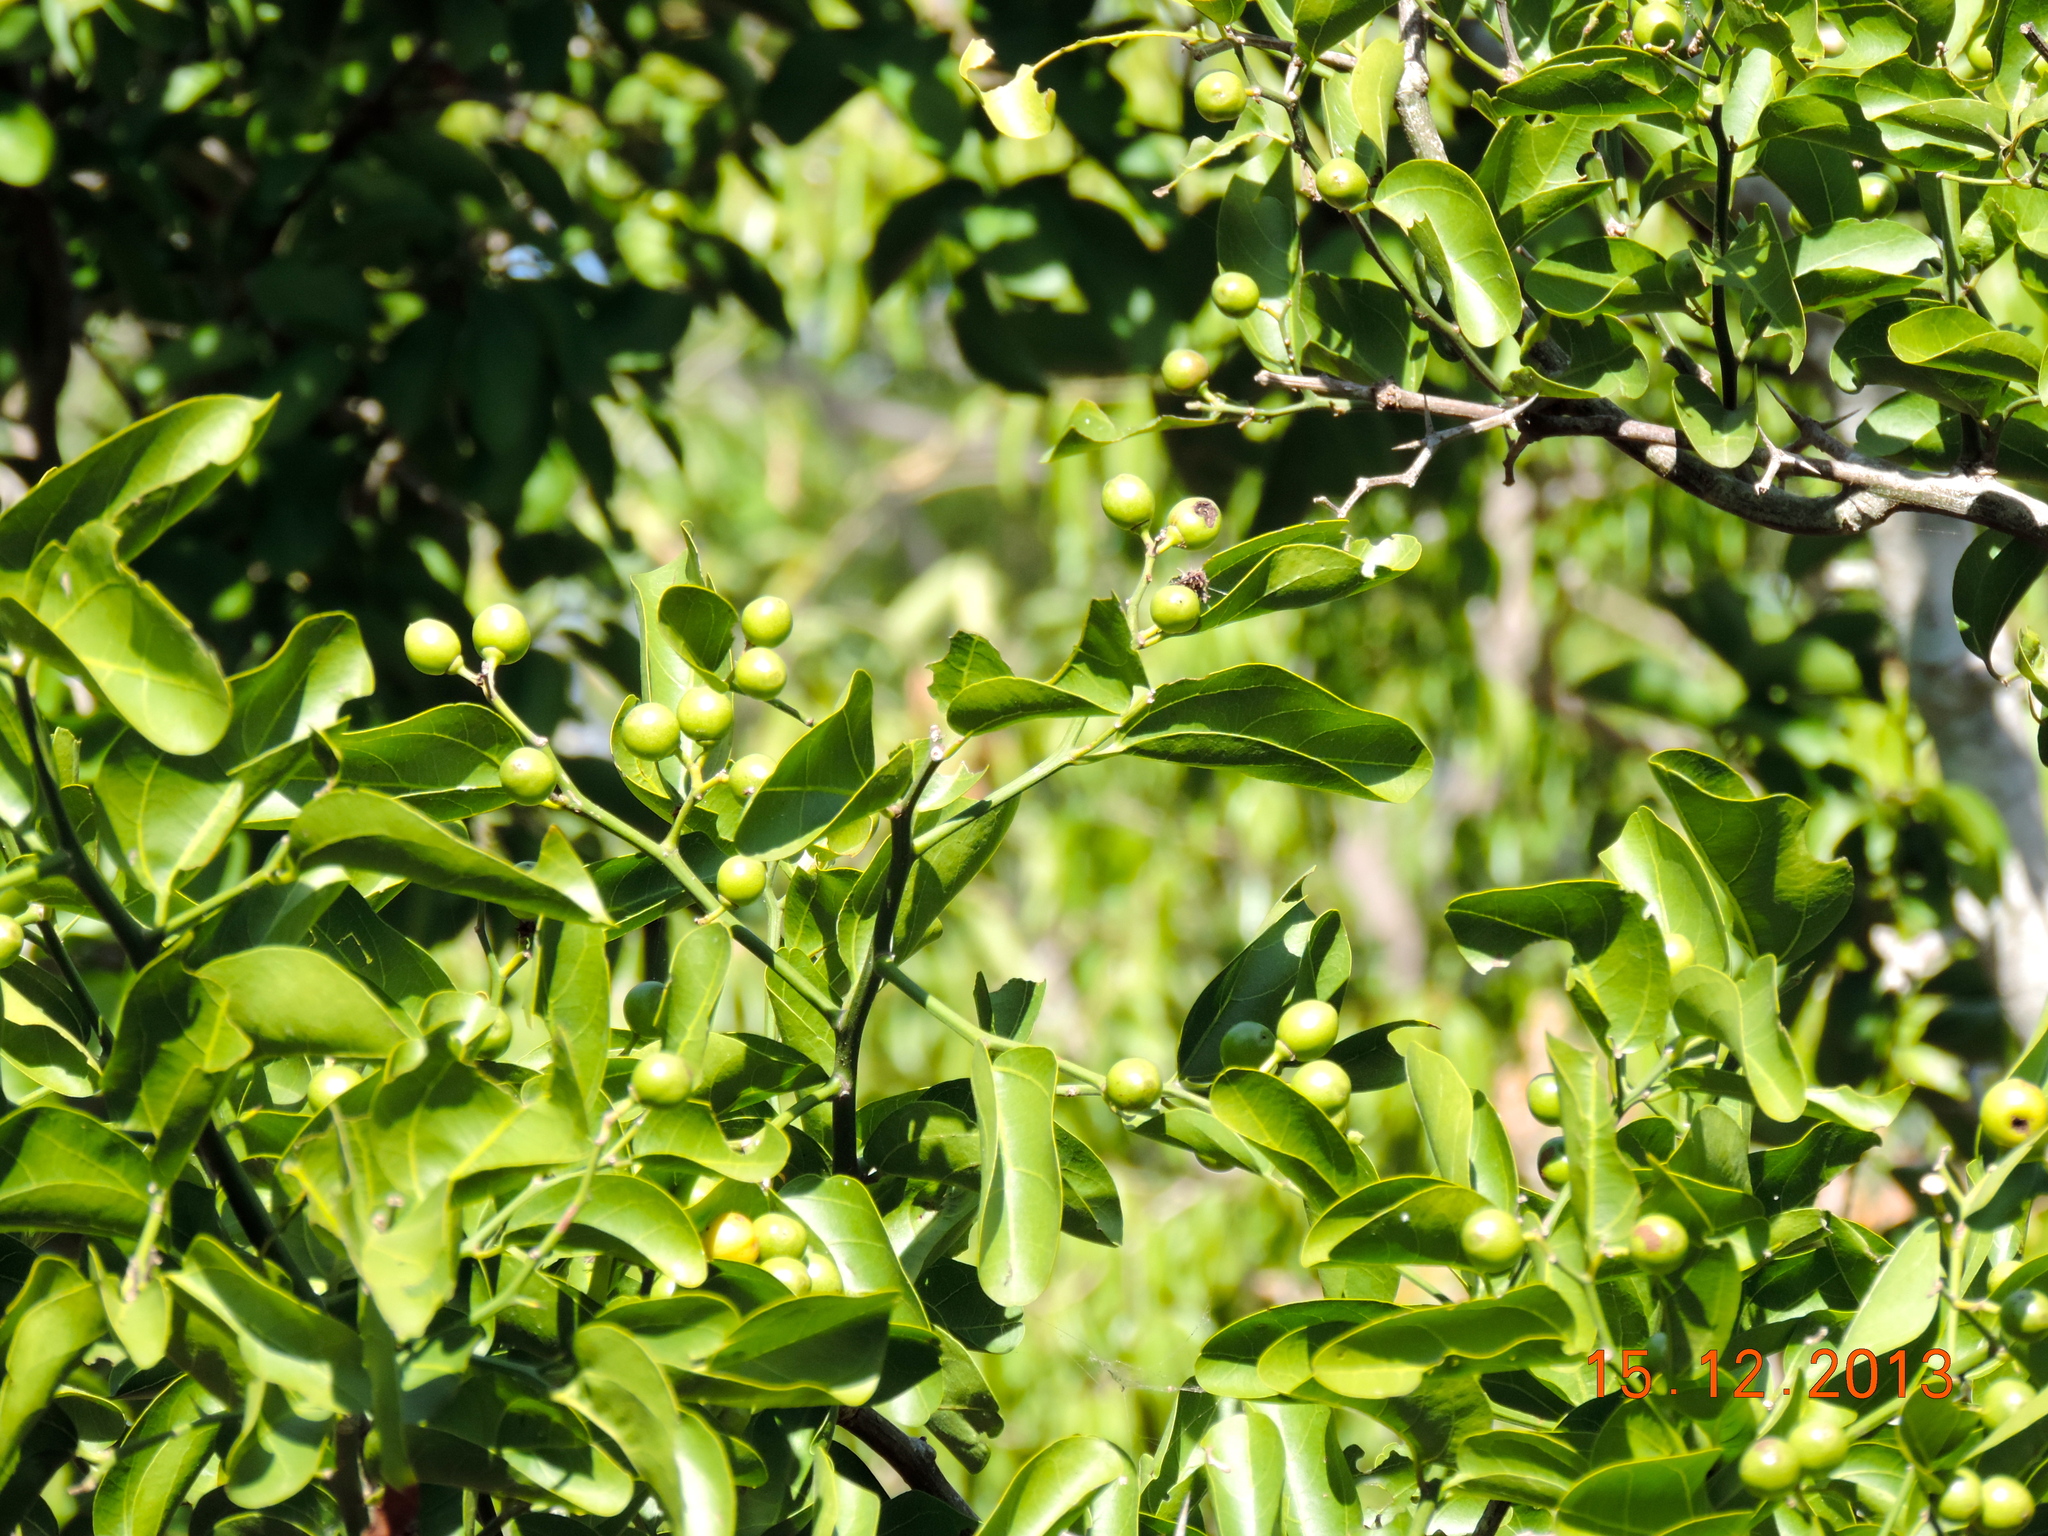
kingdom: Plantae
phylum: Tracheophyta
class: Magnoliopsida
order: Rosales
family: Rhamnaceae
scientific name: Rhamnaceae
